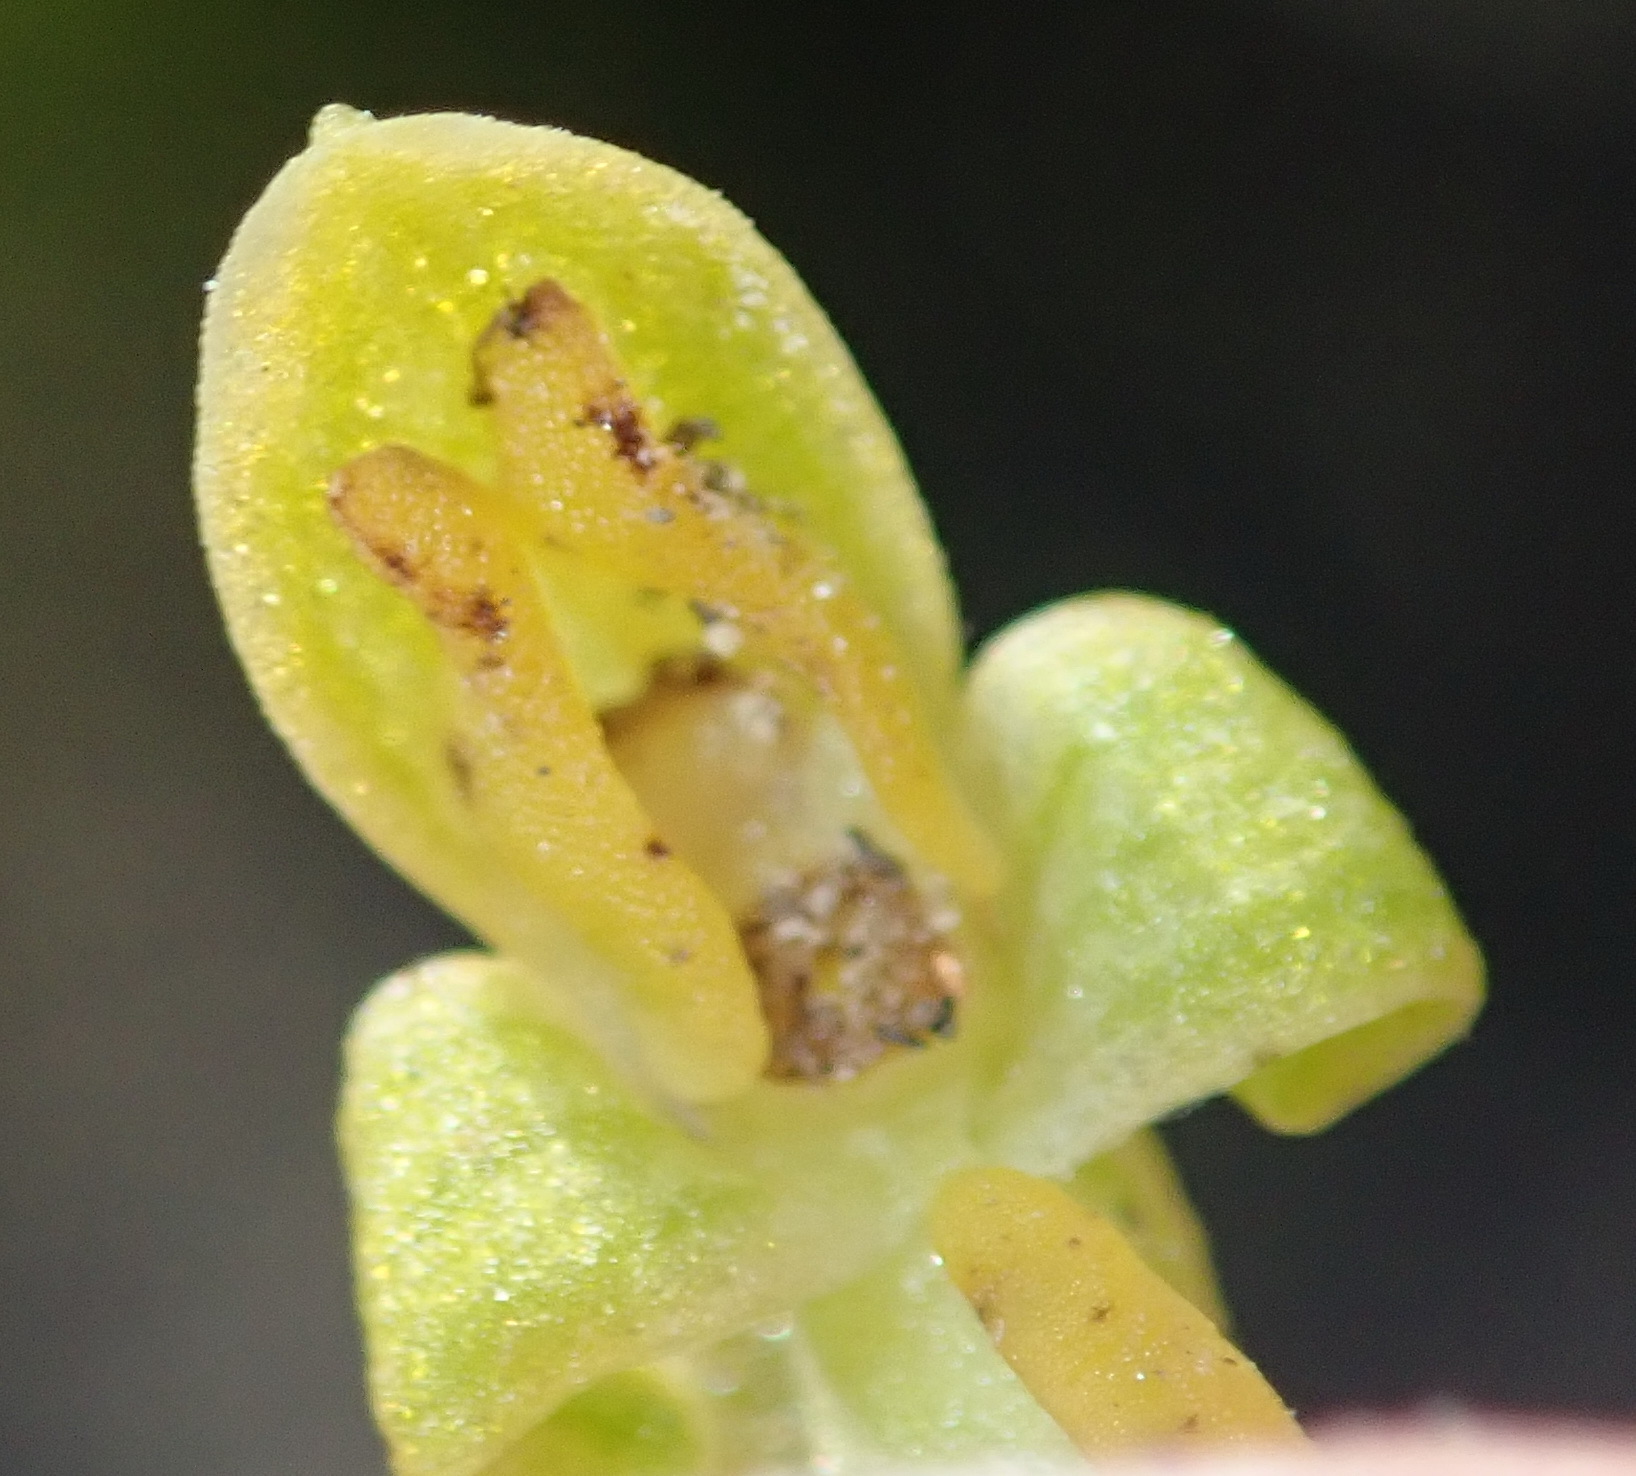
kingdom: Plantae
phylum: Tracheophyta
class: Liliopsida
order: Asparagales
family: Orchidaceae
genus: Disa
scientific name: Disa cylindrica
